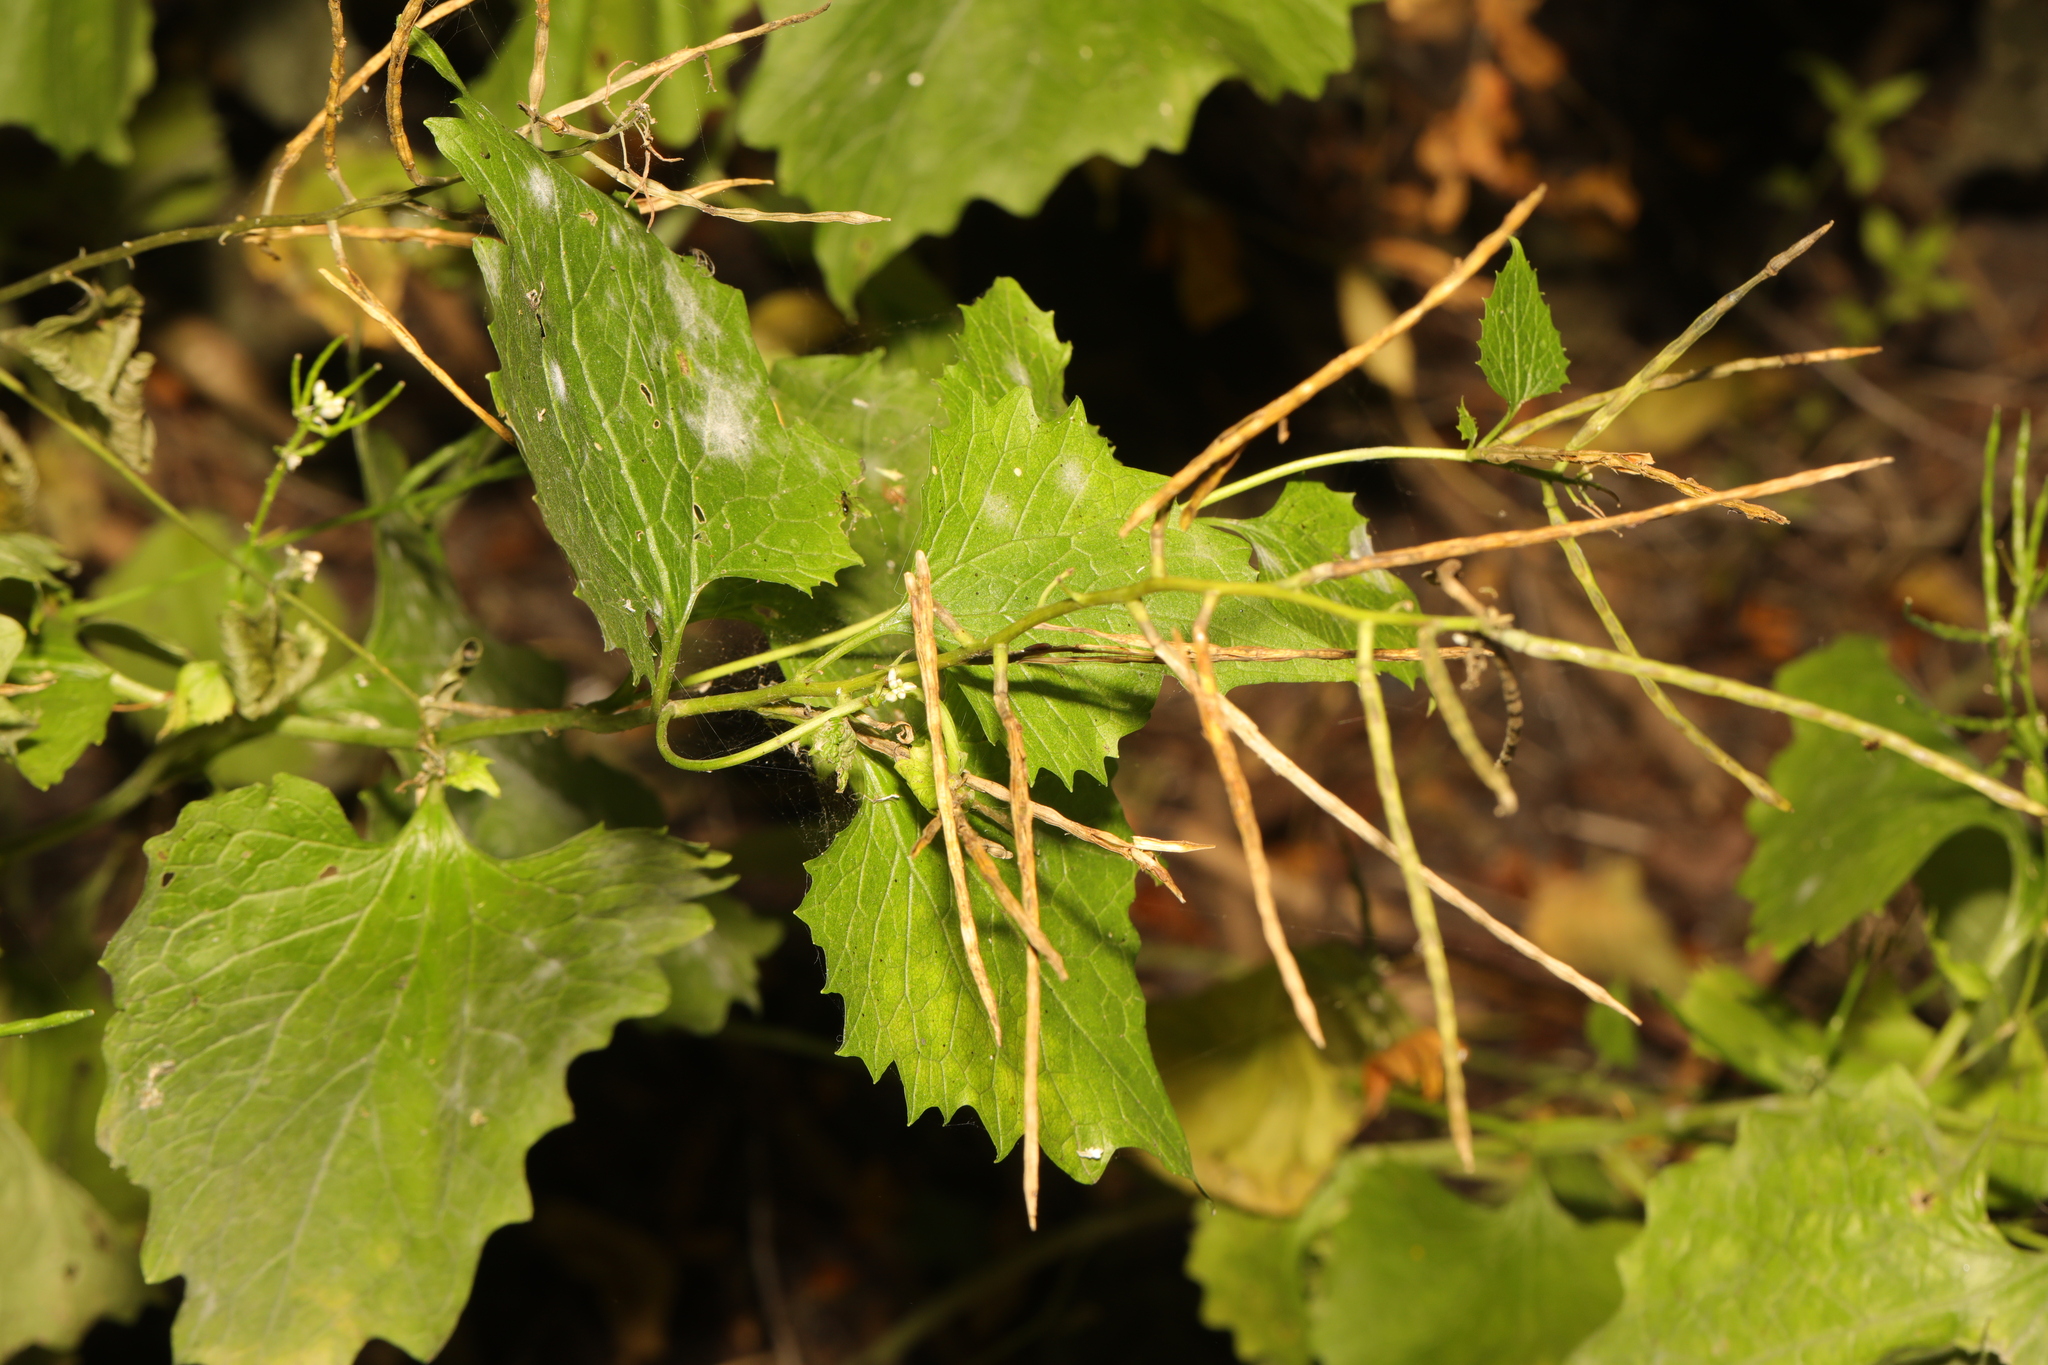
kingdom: Plantae
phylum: Tracheophyta
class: Magnoliopsida
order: Brassicales
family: Brassicaceae
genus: Alliaria
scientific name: Alliaria petiolata
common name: Garlic mustard
